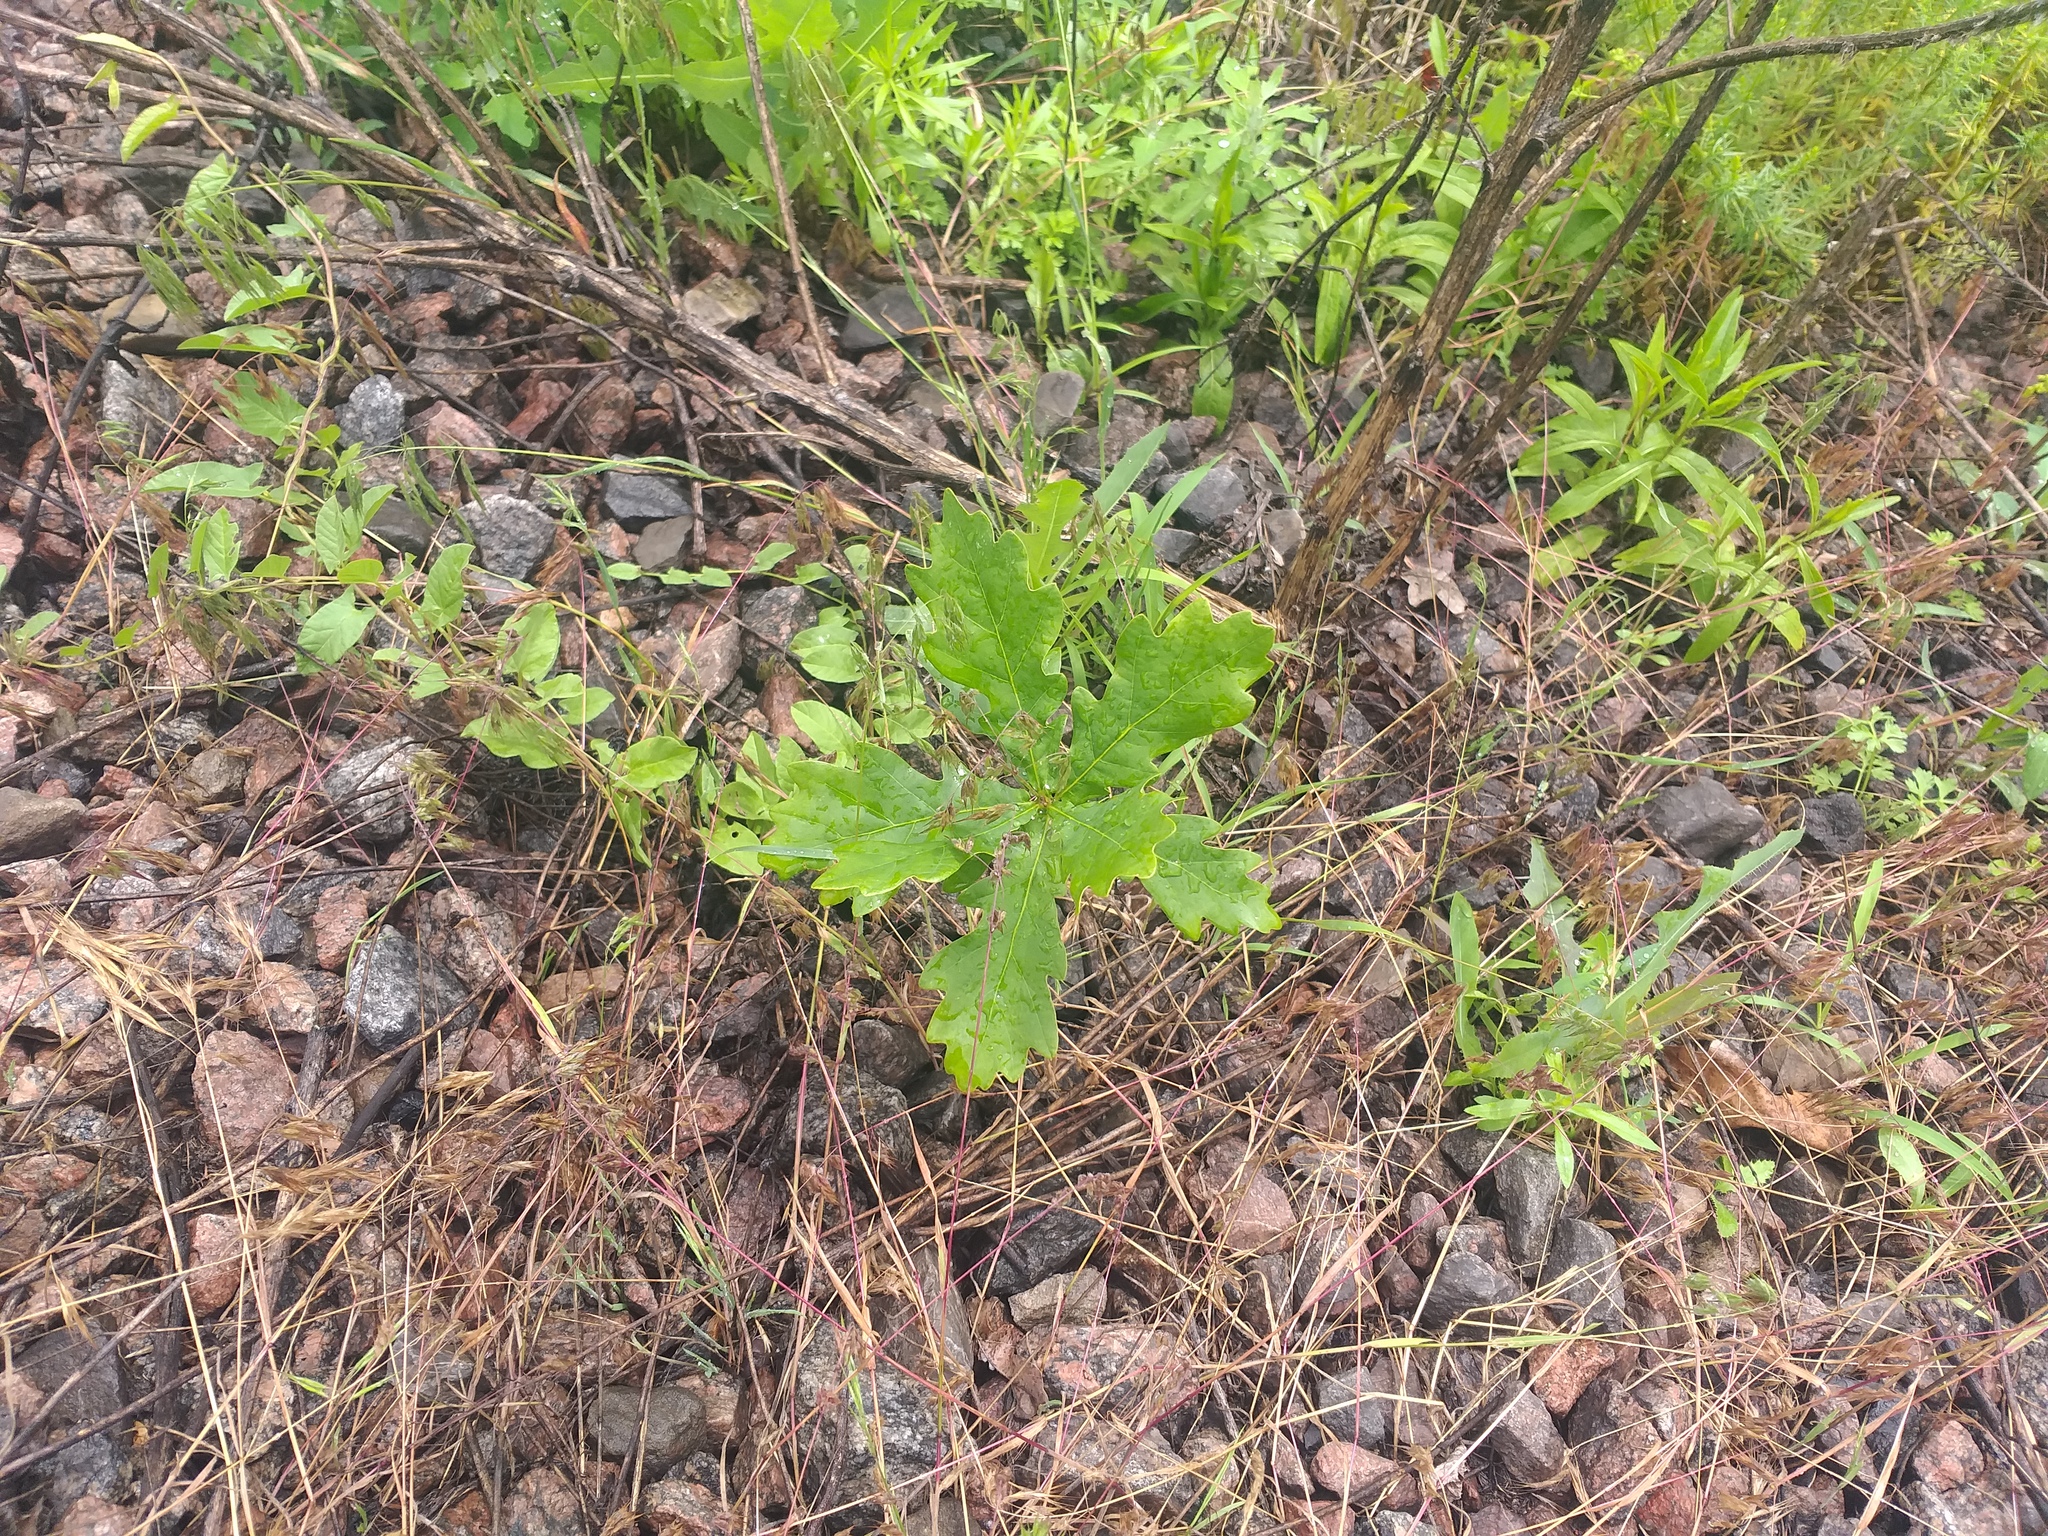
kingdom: Plantae
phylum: Tracheophyta
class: Magnoliopsida
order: Fagales
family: Fagaceae
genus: Quercus
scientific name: Quercus robur
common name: Pedunculate oak
